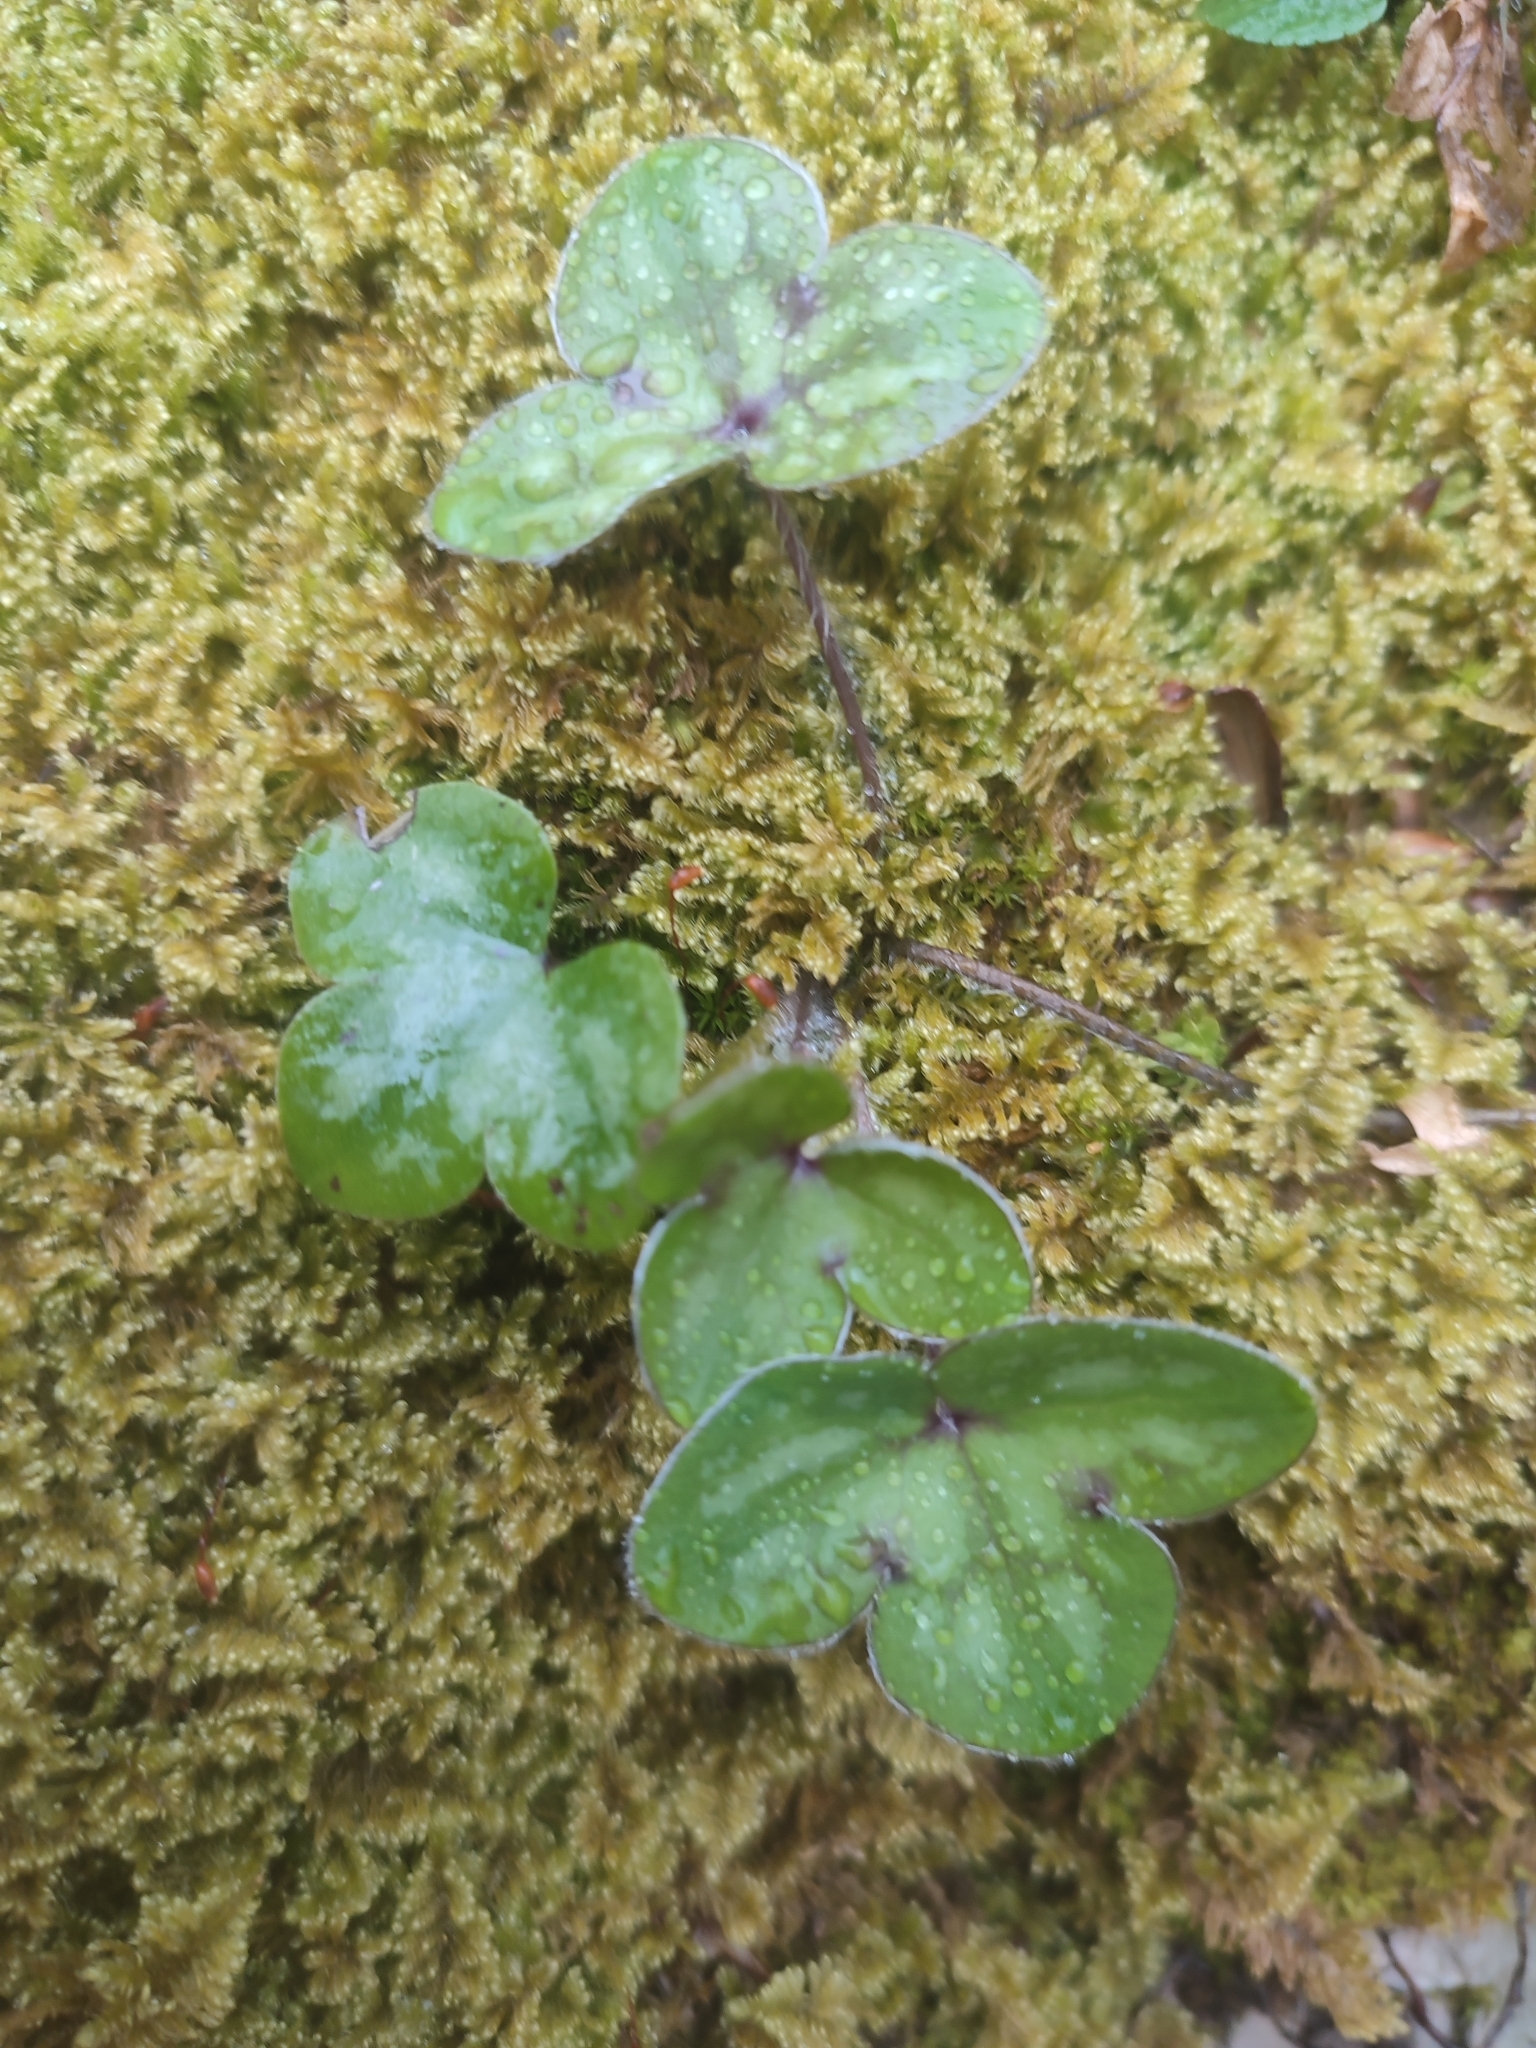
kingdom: Plantae
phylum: Tracheophyta
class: Magnoliopsida
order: Ranunculales
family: Ranunculaceae
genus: Hepatica
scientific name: Hepatica nobilis
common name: Liverleaf
